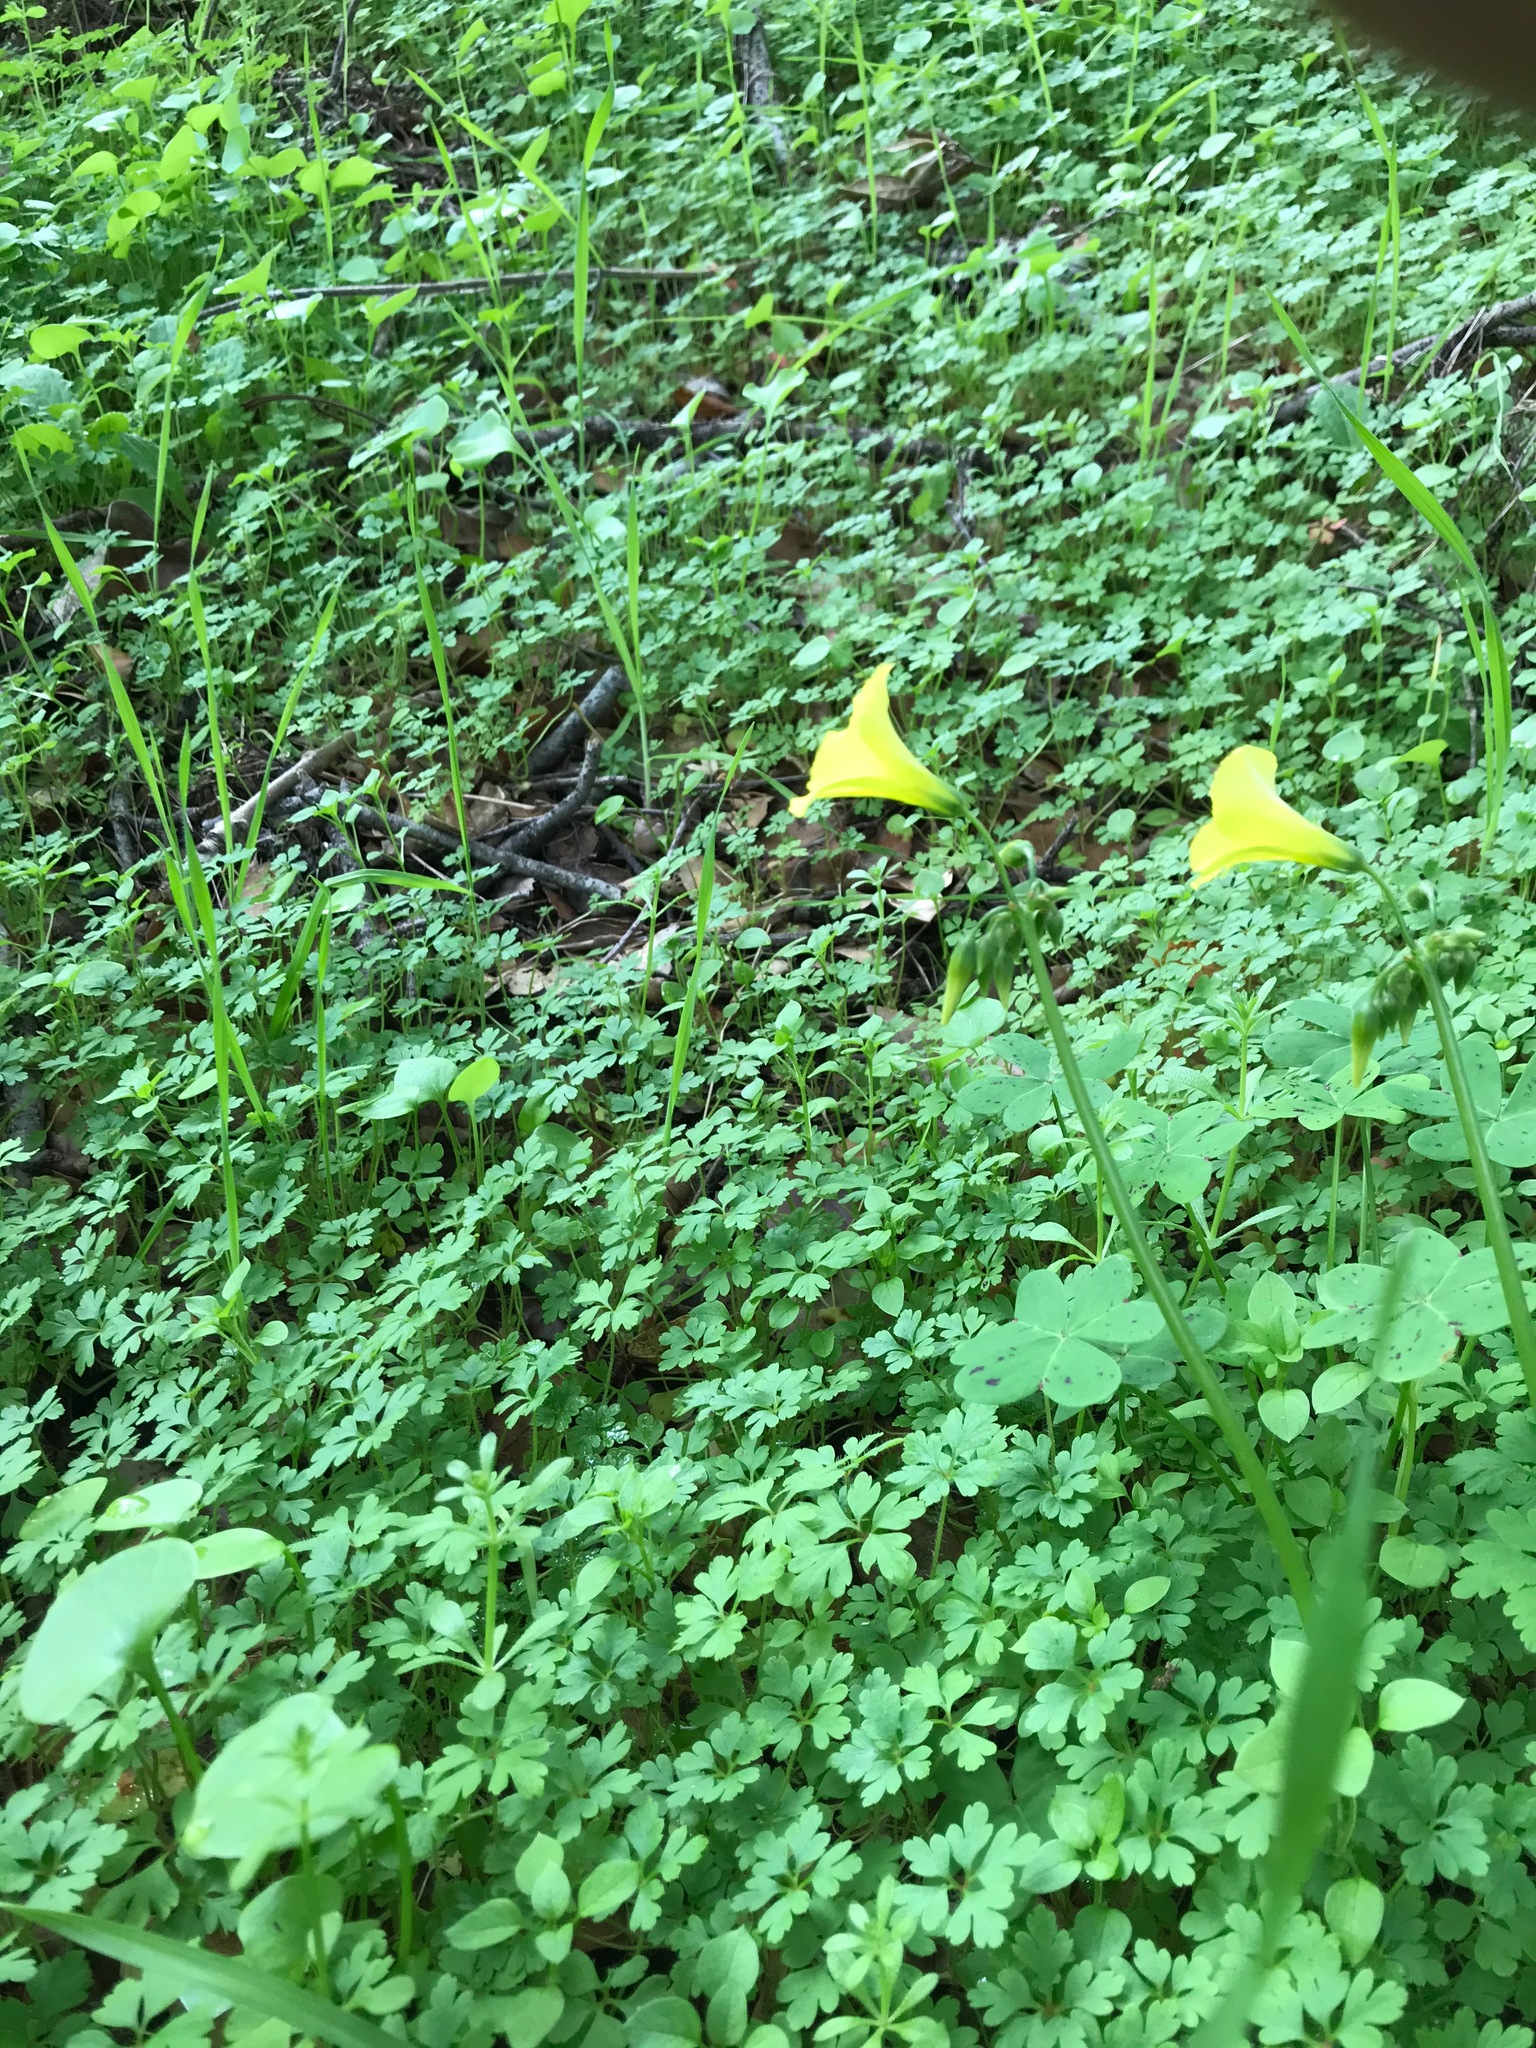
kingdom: Plantae
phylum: Tracheophyta
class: Magnoliopsida
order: Oxalidales
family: Oxalidaceae
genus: Oxalis
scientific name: Oxalis pes-caprae
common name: Bermuda-buttercup
